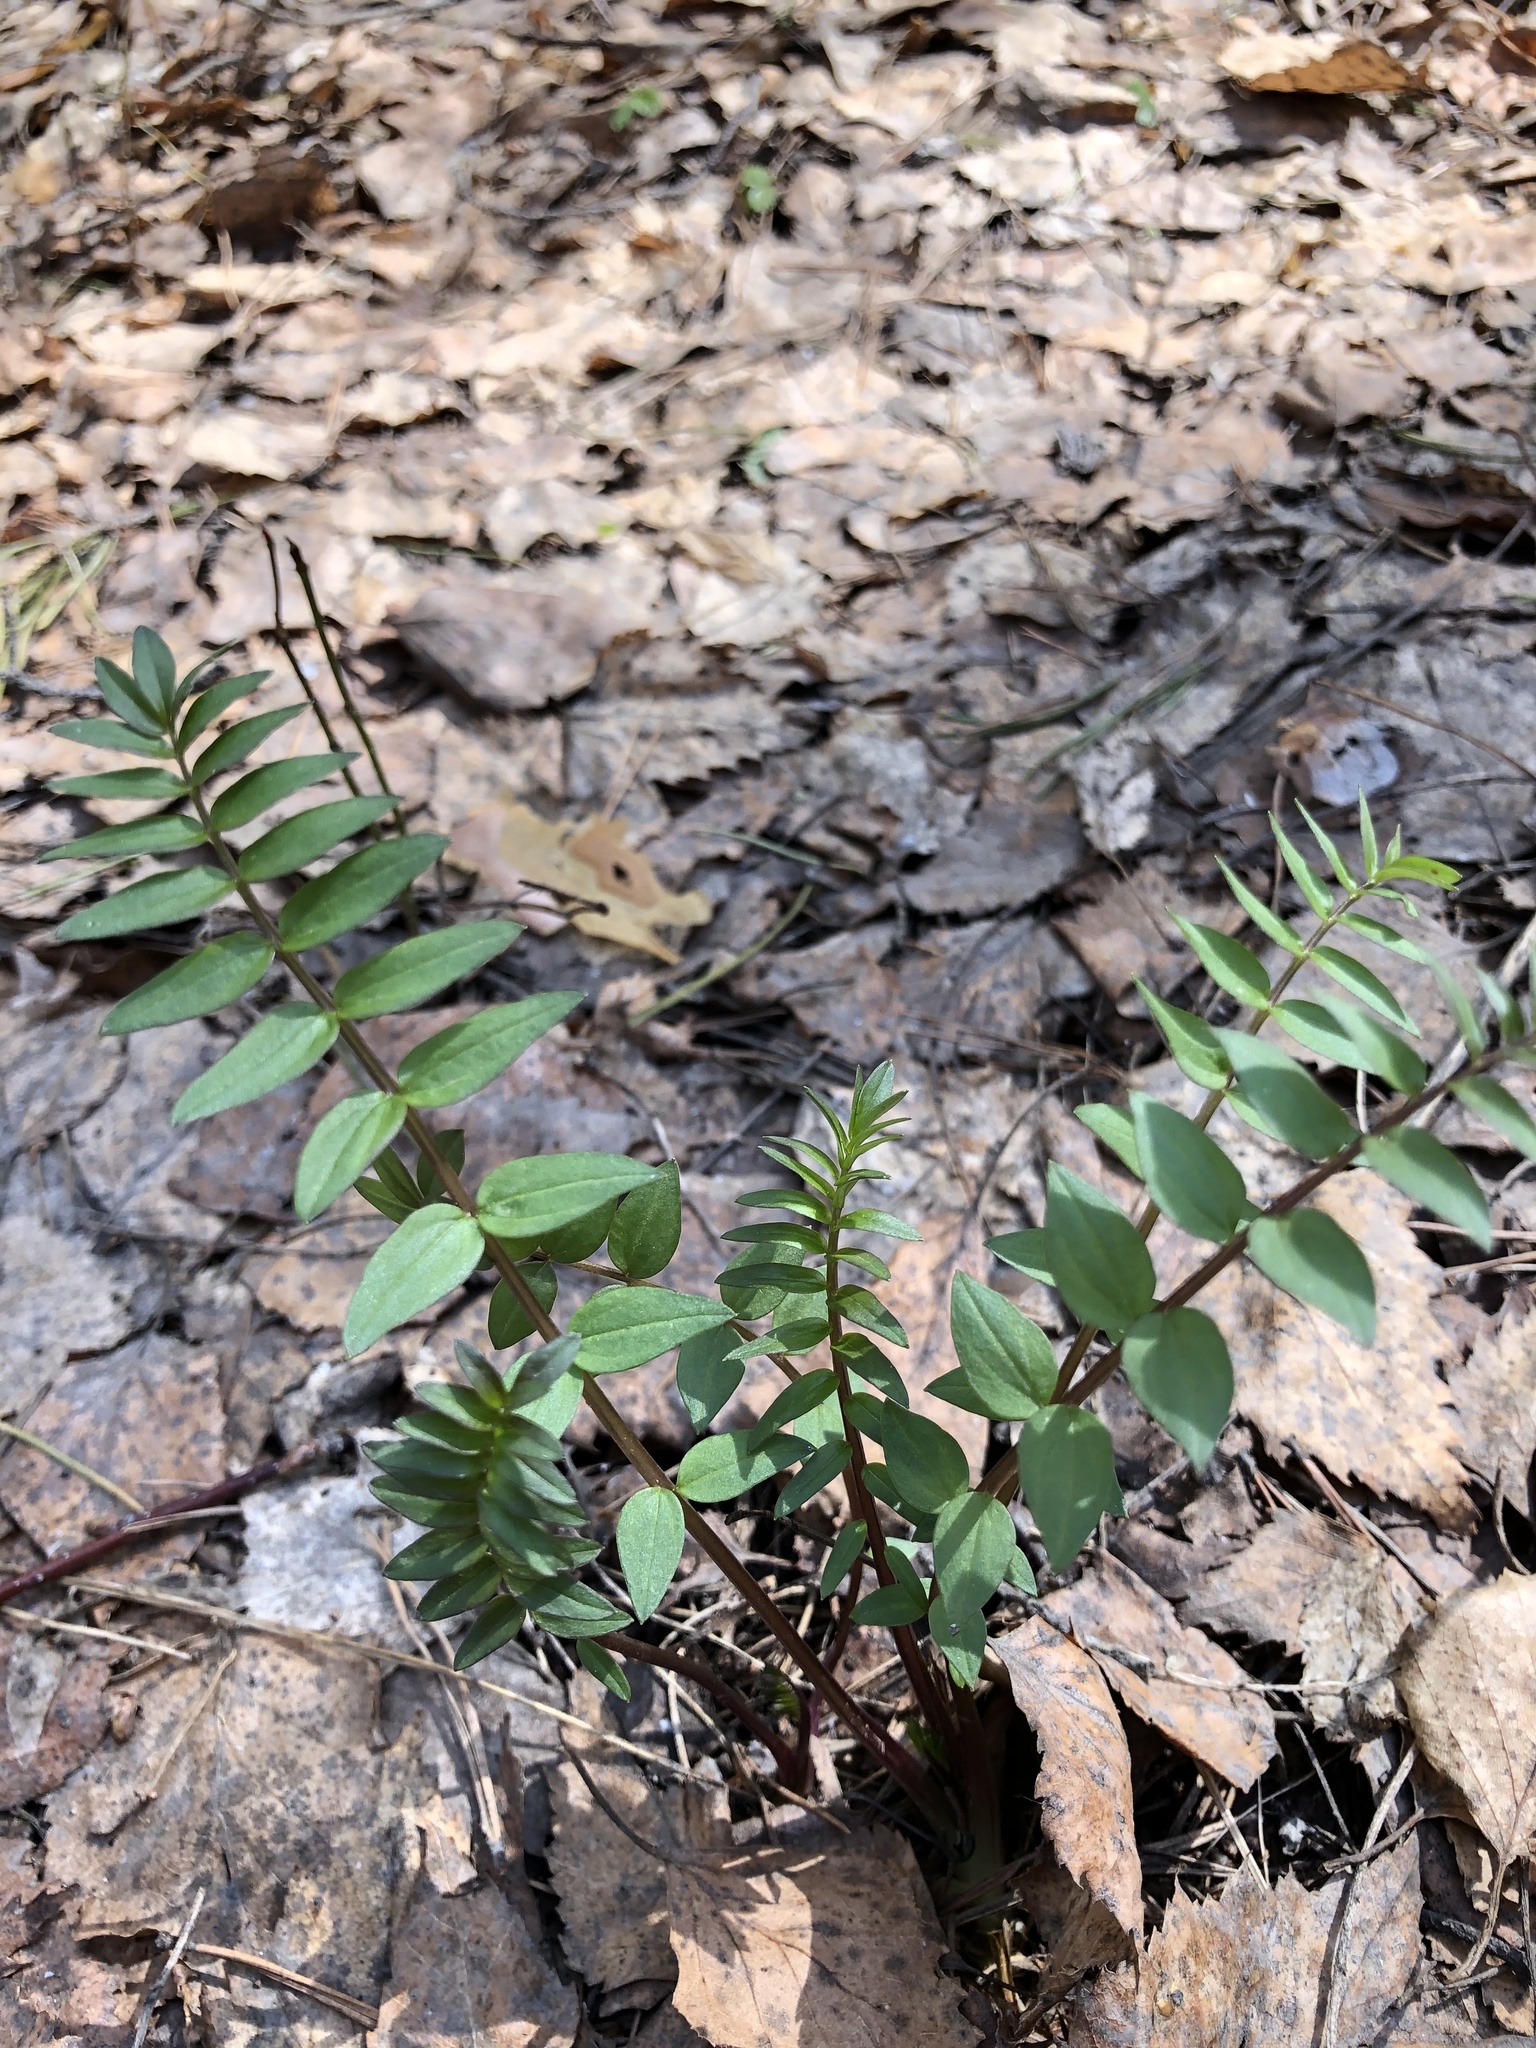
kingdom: Plantae
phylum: Tracheophyta
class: Magnoliopsida
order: Ericales
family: Polemoniaceae
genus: Polemonium
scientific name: Polemonium caeruleum
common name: Jacob's-ladder
